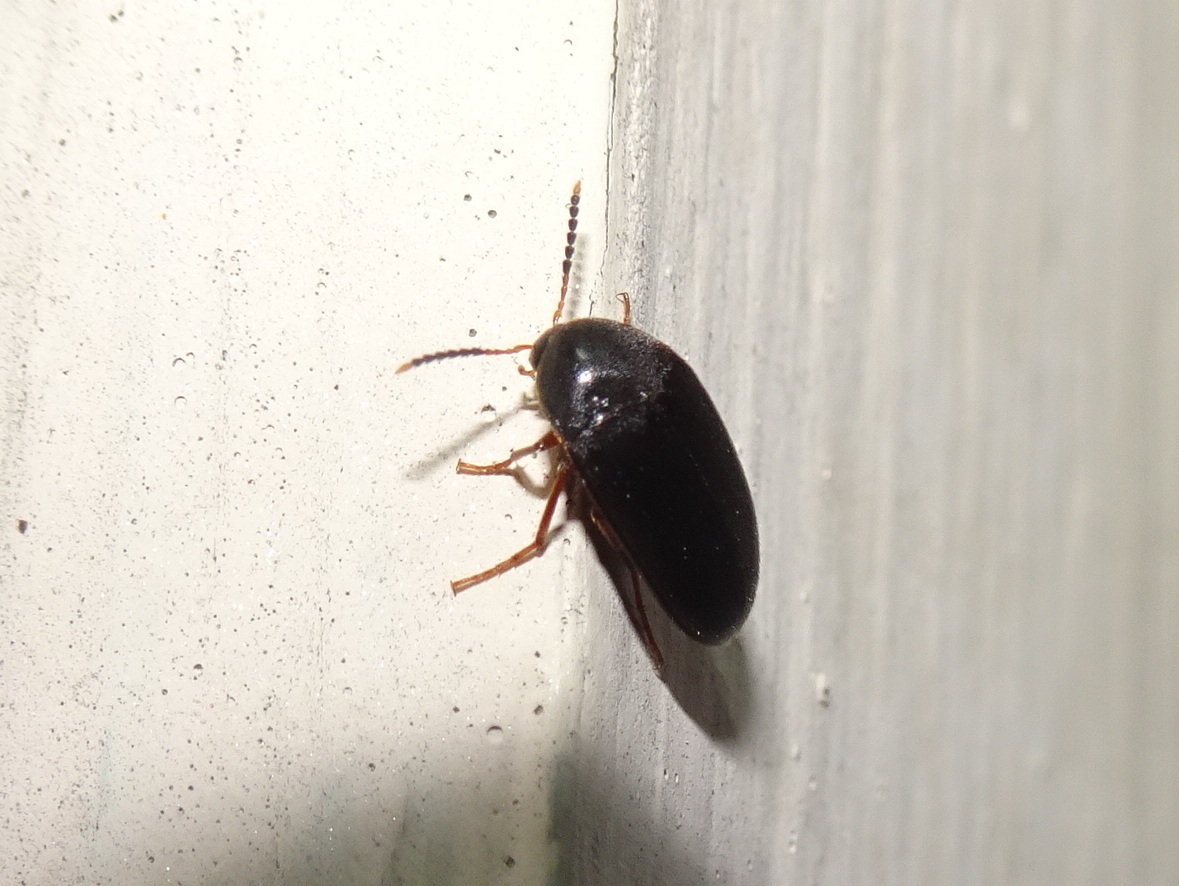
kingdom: Animalia
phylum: Arthropoda
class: Insecta
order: Coleoptera
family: Tetratomidae
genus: Eustrophopsis
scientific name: Eustrophopsis bicolor
